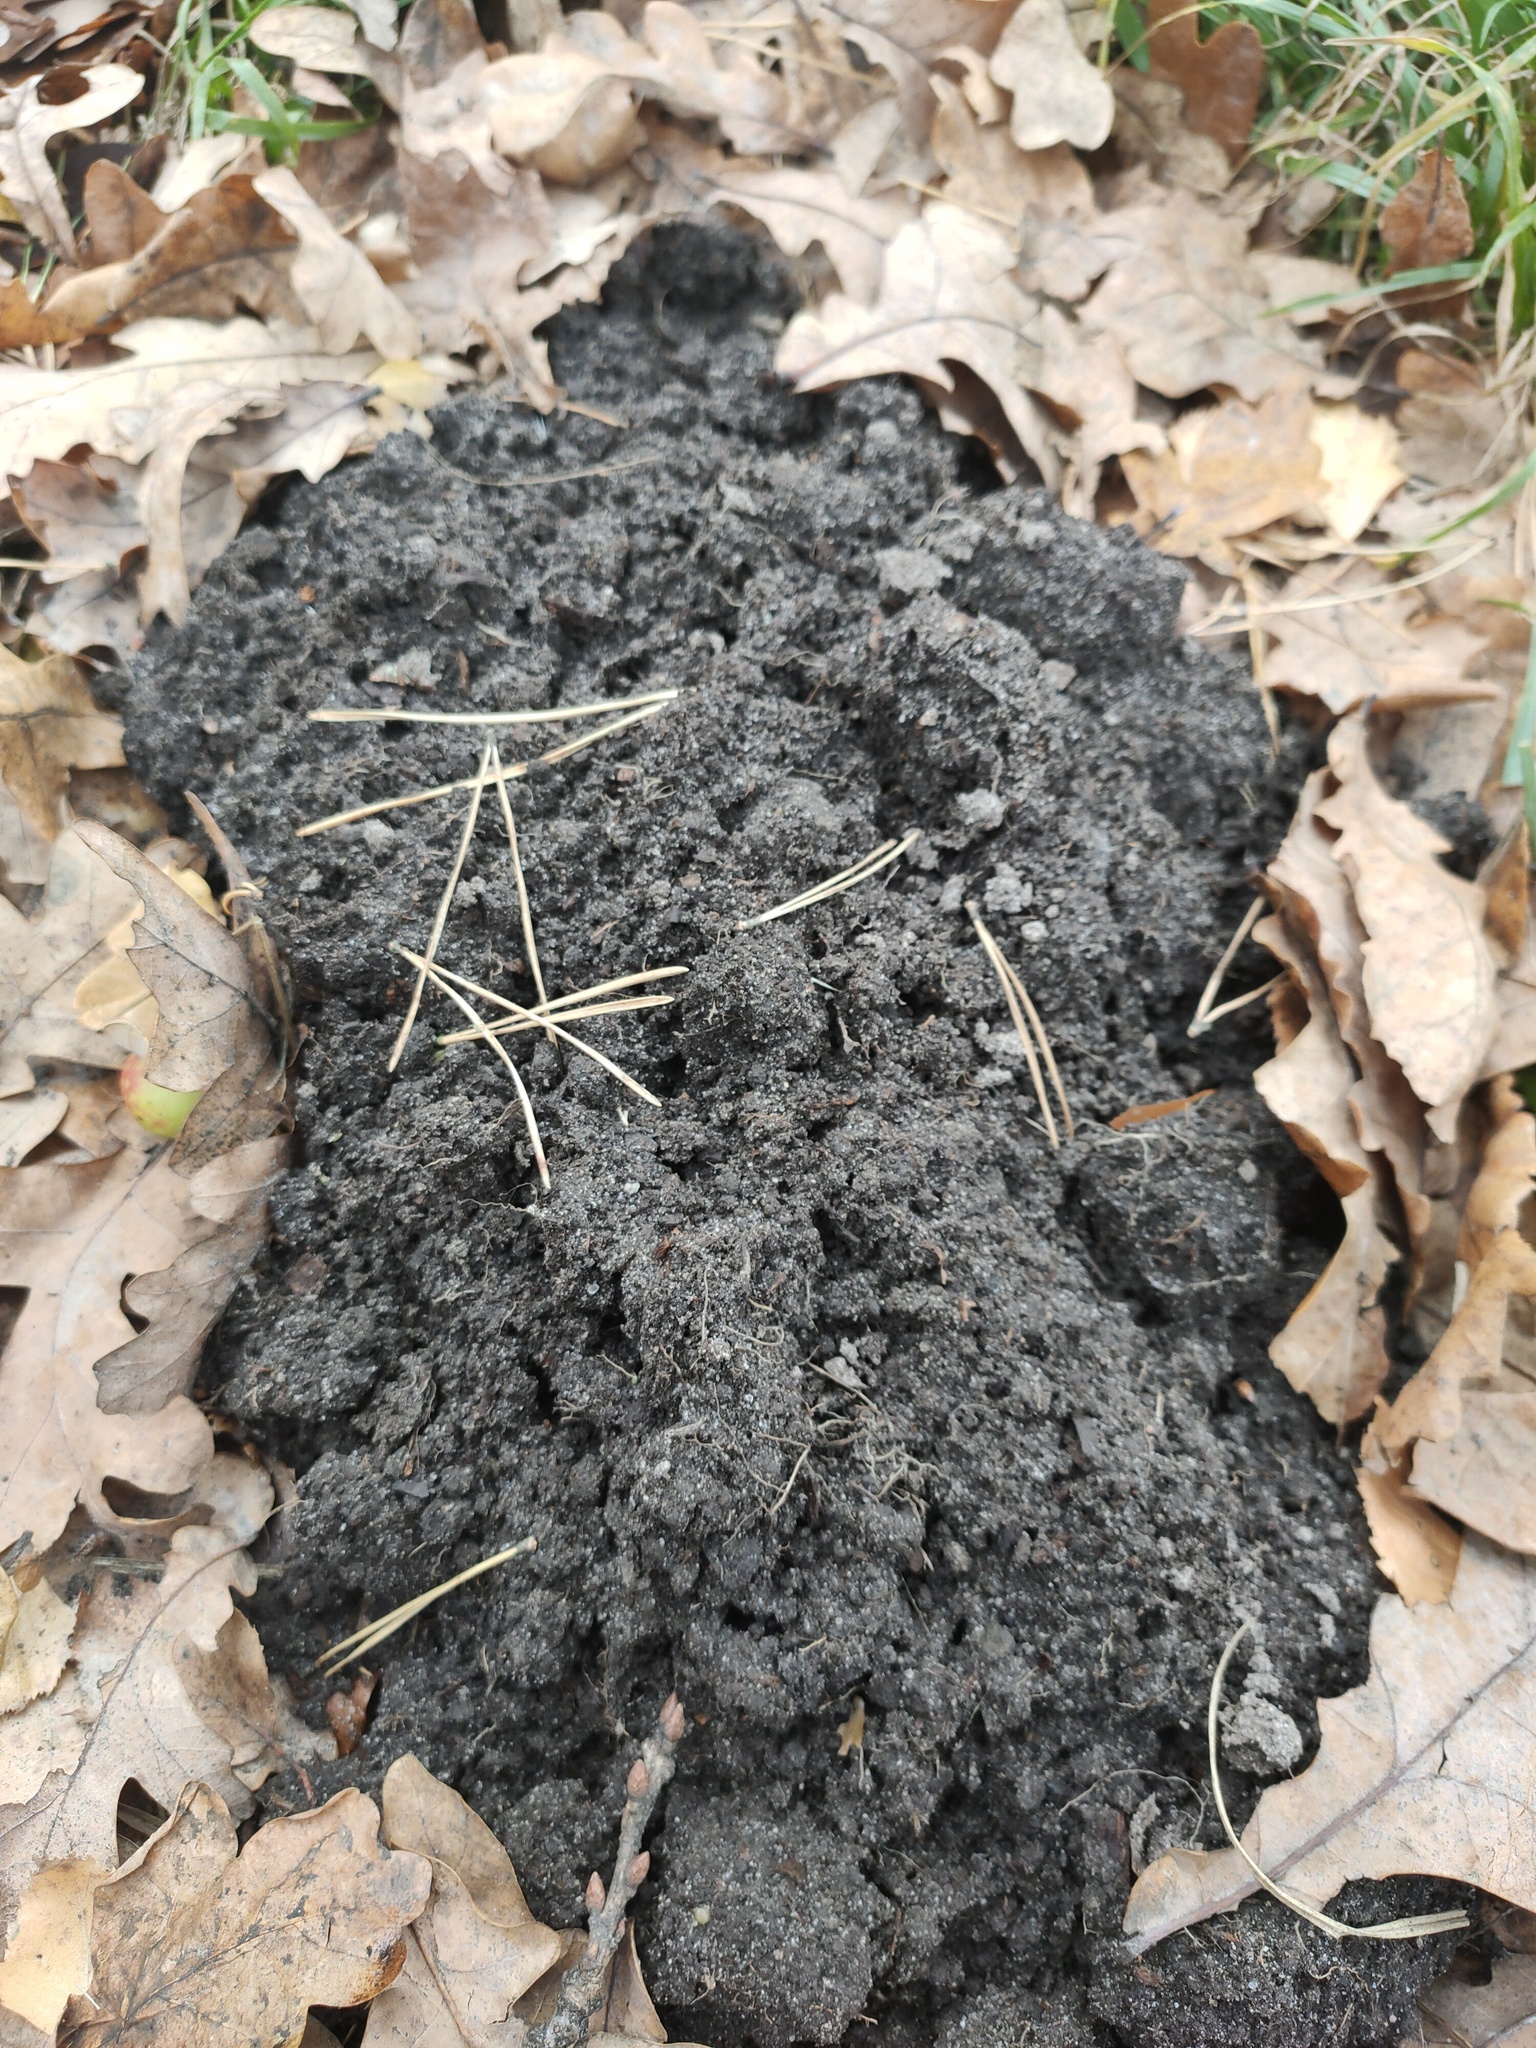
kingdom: Animalia
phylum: Chordata
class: Mammalia
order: Soricomorpha
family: Talpidae
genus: Talpa
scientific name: Talpa europaea
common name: European mole
